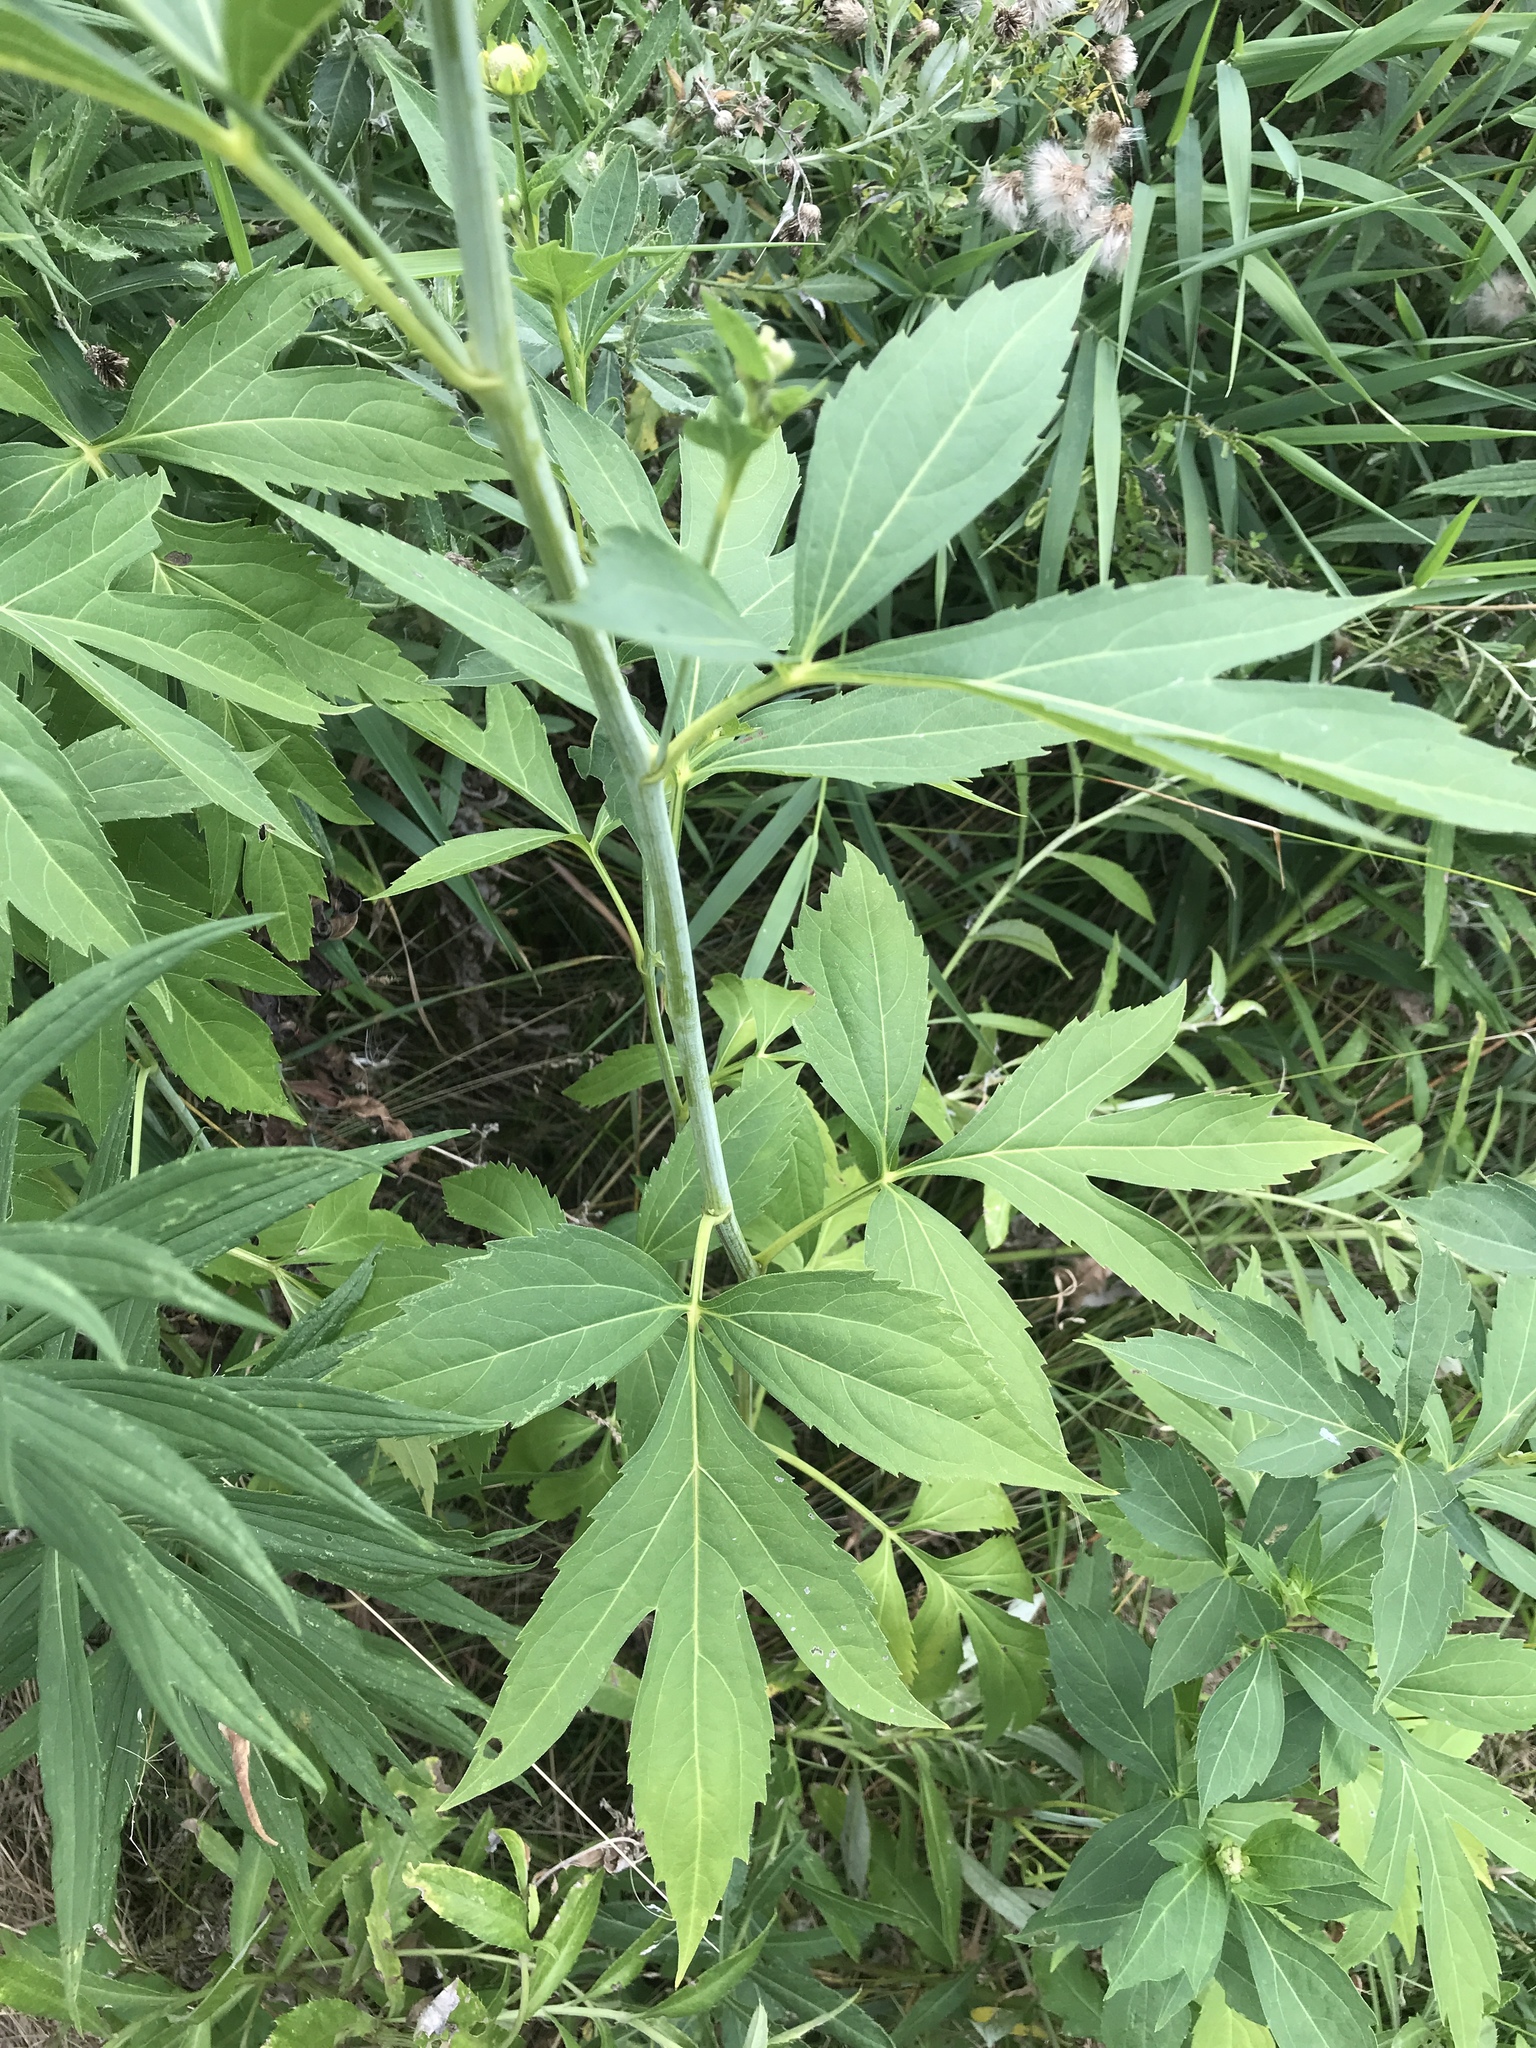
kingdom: Plantae
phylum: Tracheophyta
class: Magnoliopsida
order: Asterales
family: Asteraceae
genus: Rudbeckia
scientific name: Rudbeckia laciniata
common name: Coneflower
